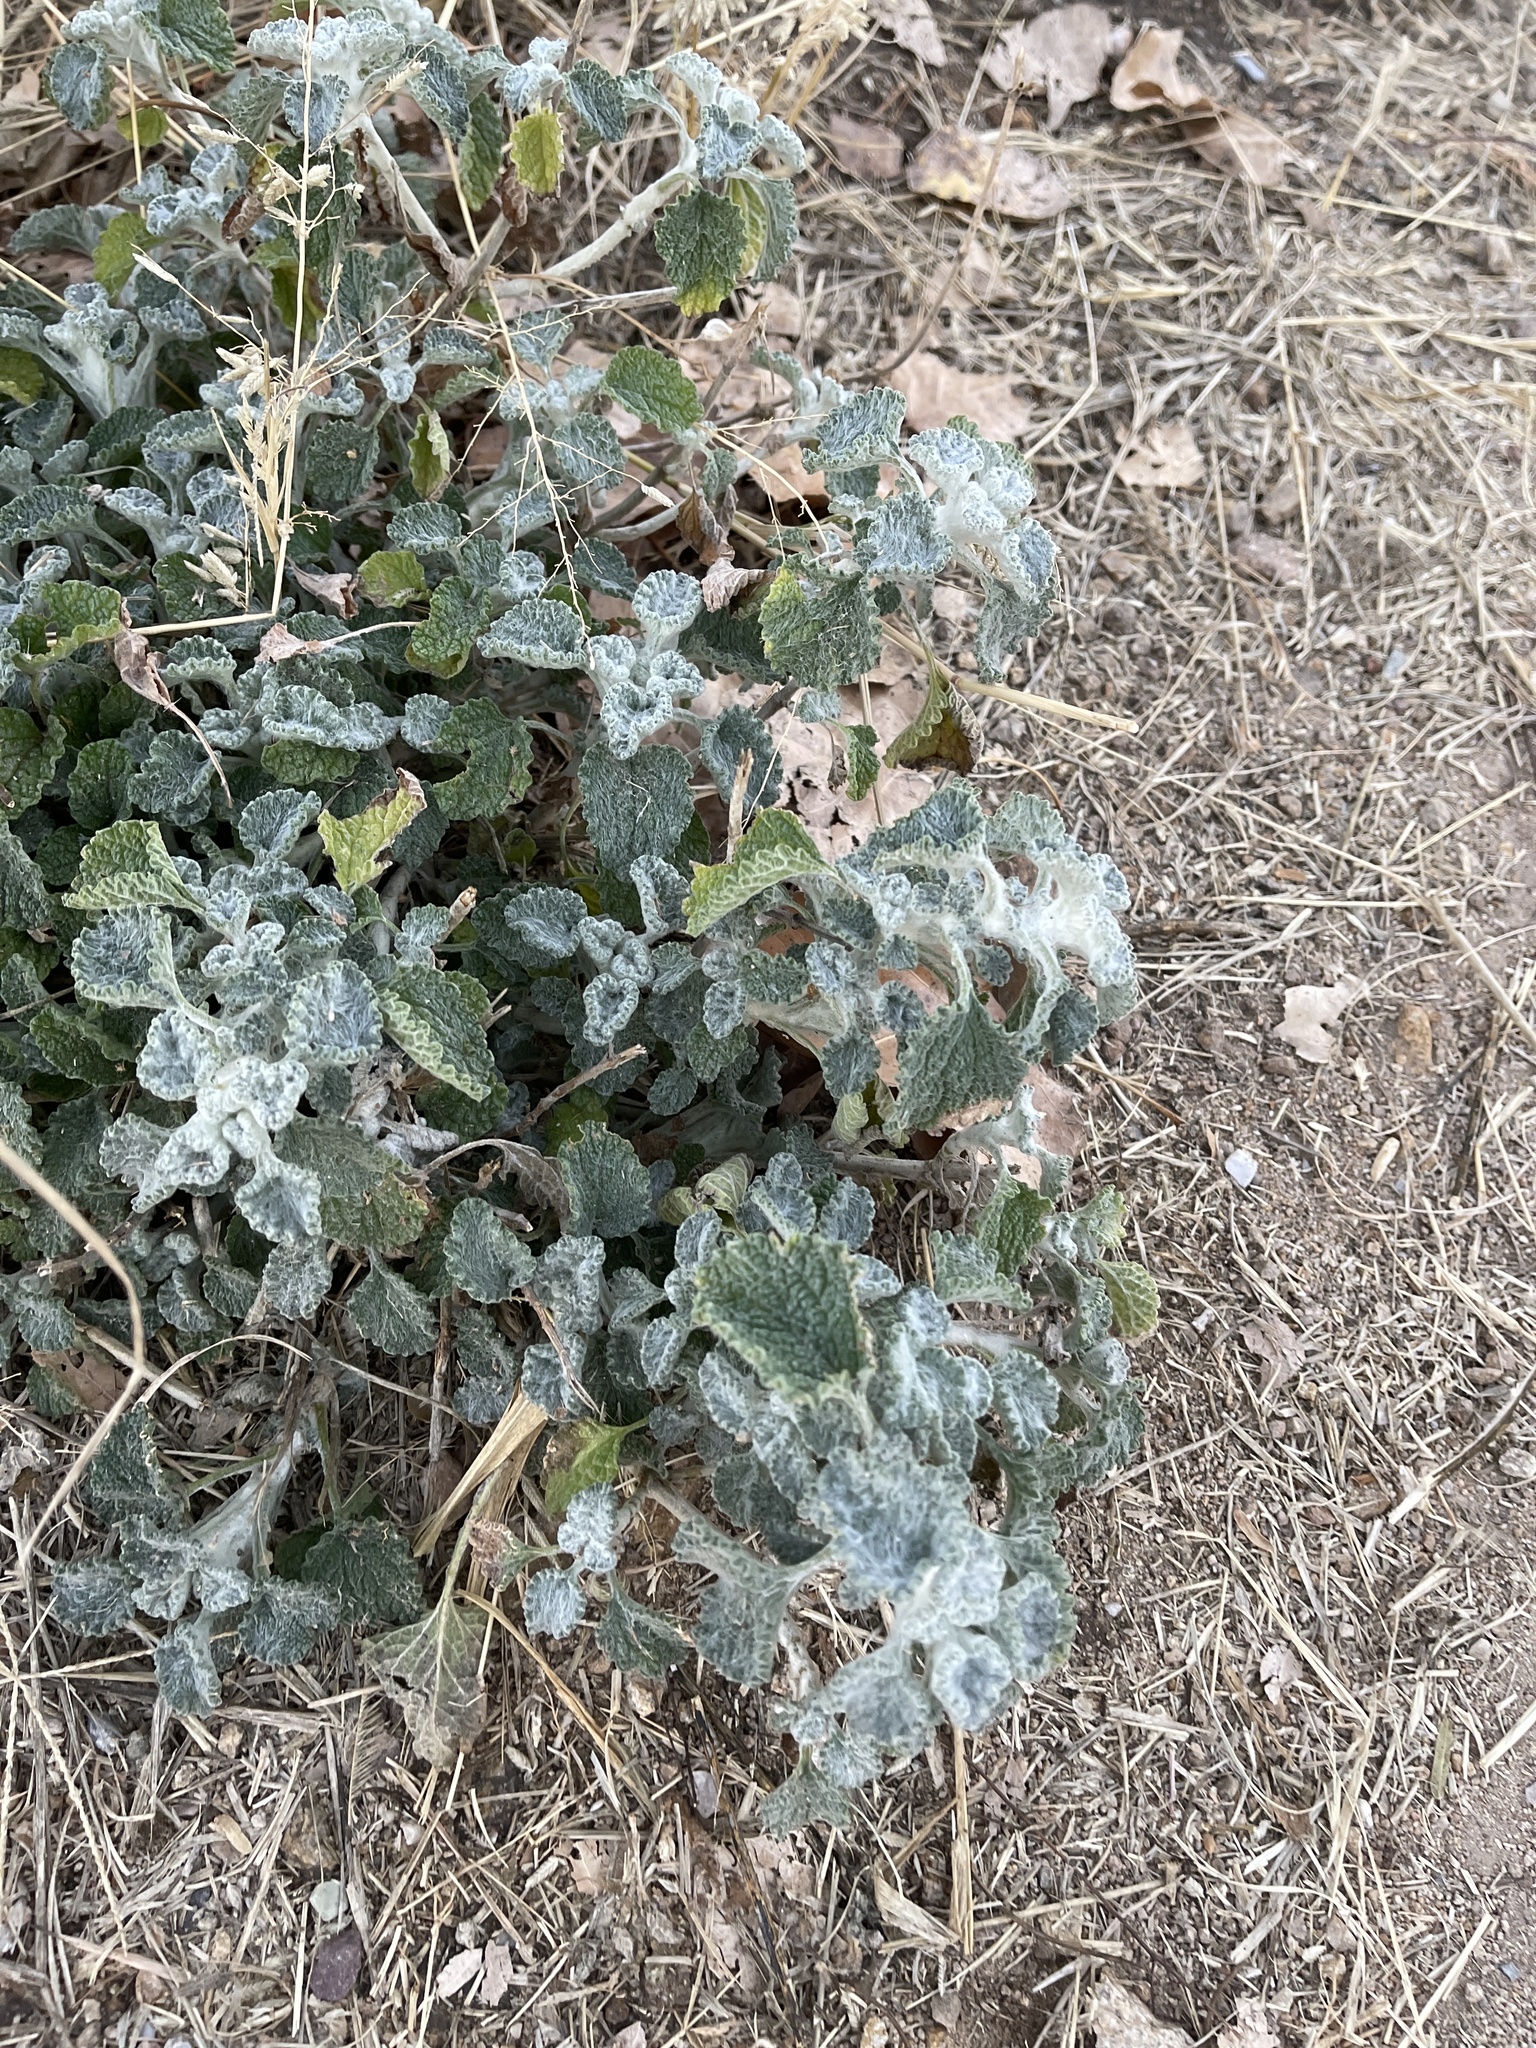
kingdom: Plantae
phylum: Tracheophyta
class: Magnoliopsida
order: Lamiales
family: Lamiaceae
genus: Marrubium
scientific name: Marrubium vulgare
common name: Horehound
